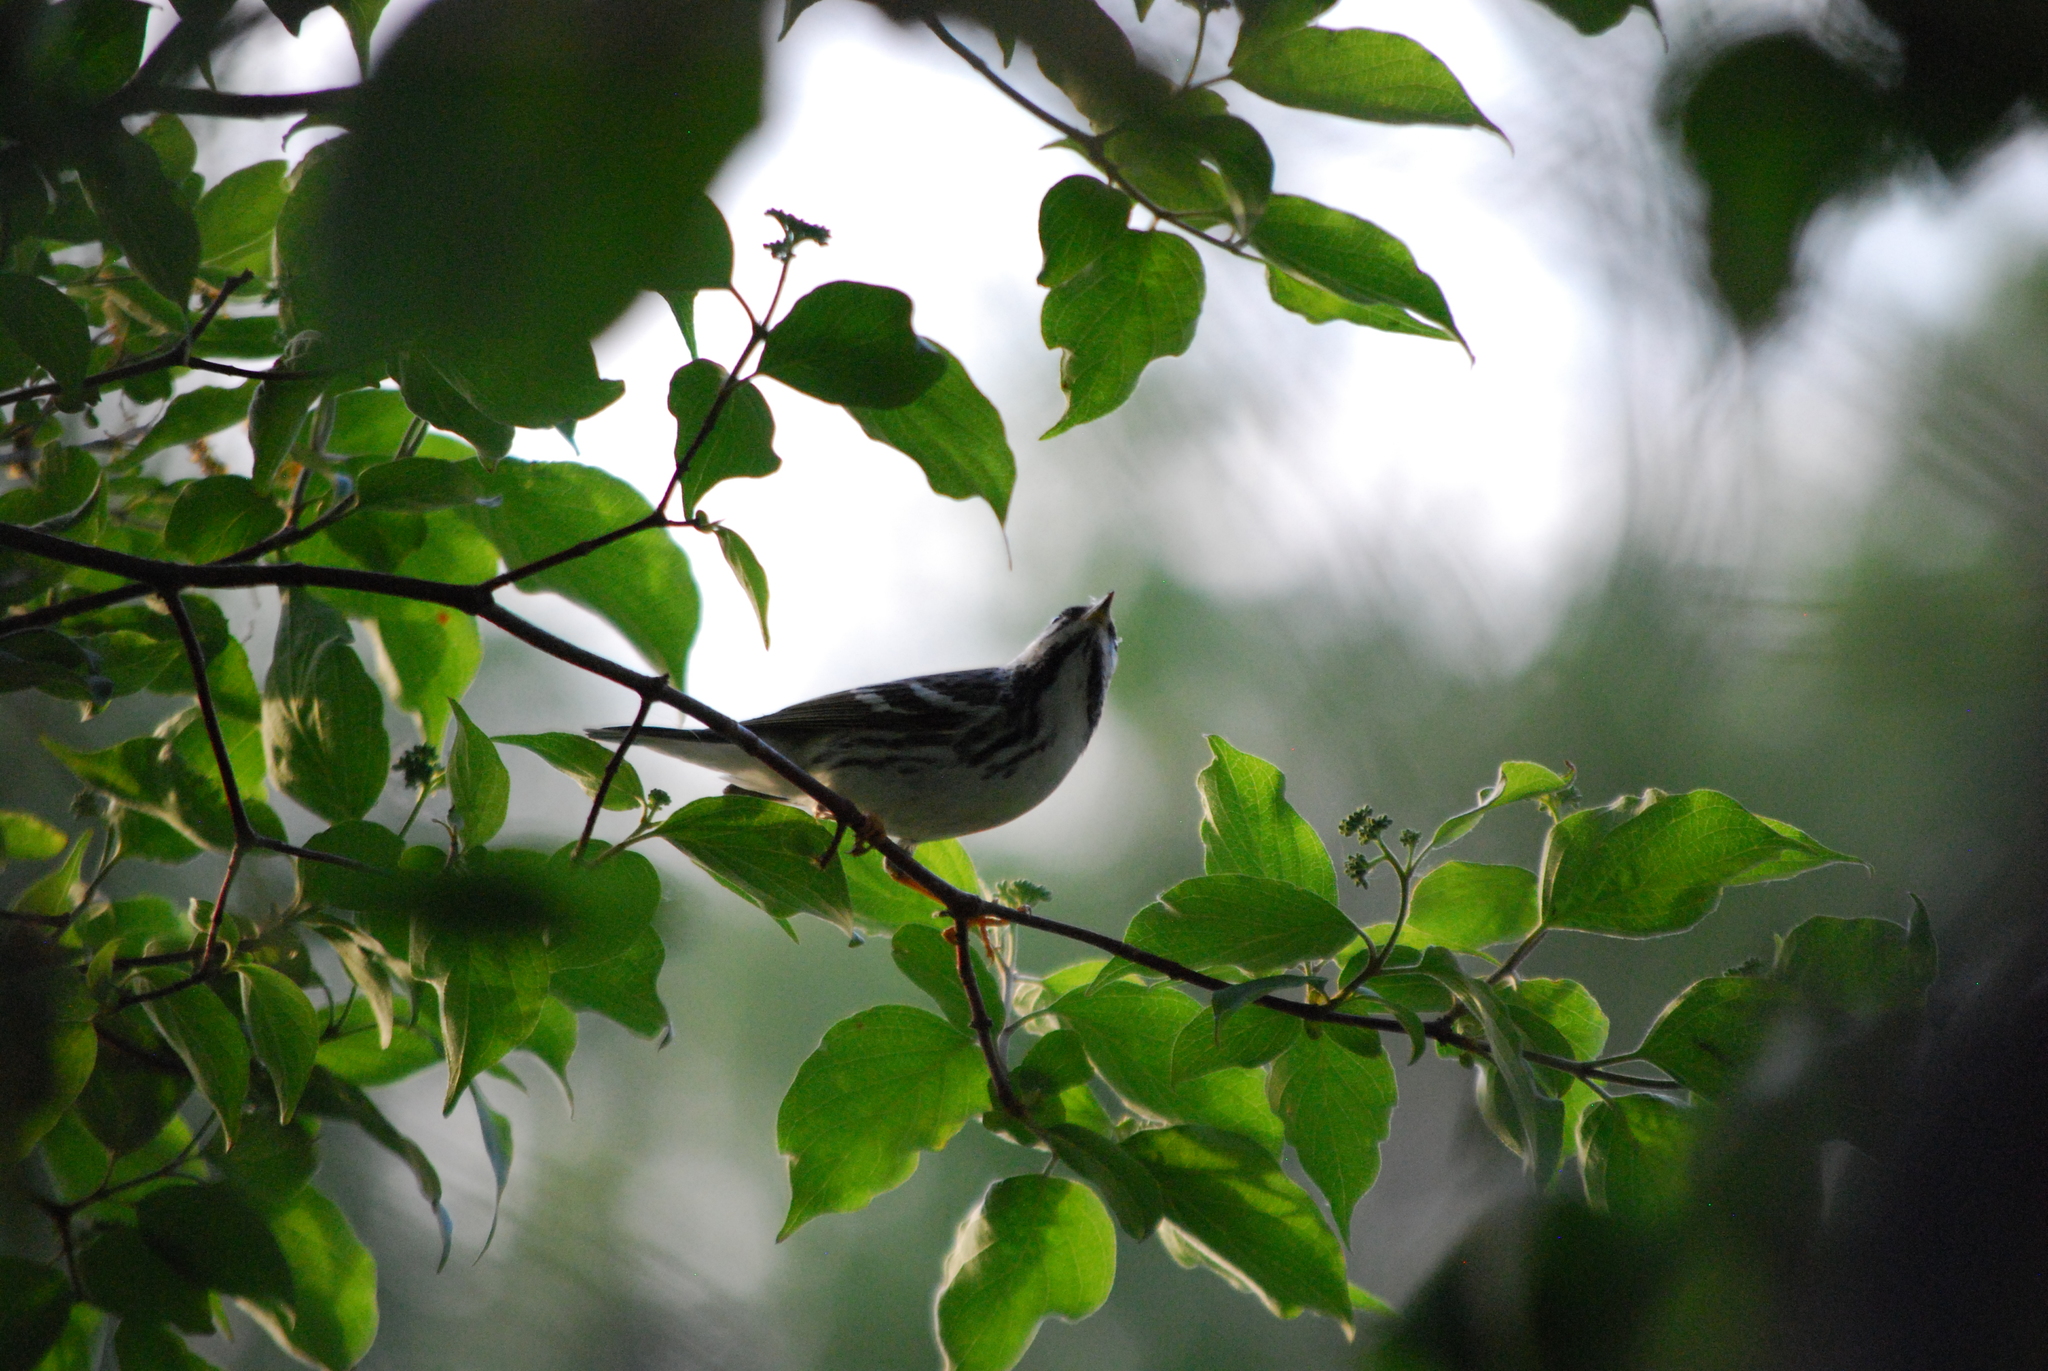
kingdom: Animalia
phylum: Chordata
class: Aves
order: Passeriformes
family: Parulidae
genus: Setophaga
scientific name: Setophaga striata
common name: Blackpoll warbler
